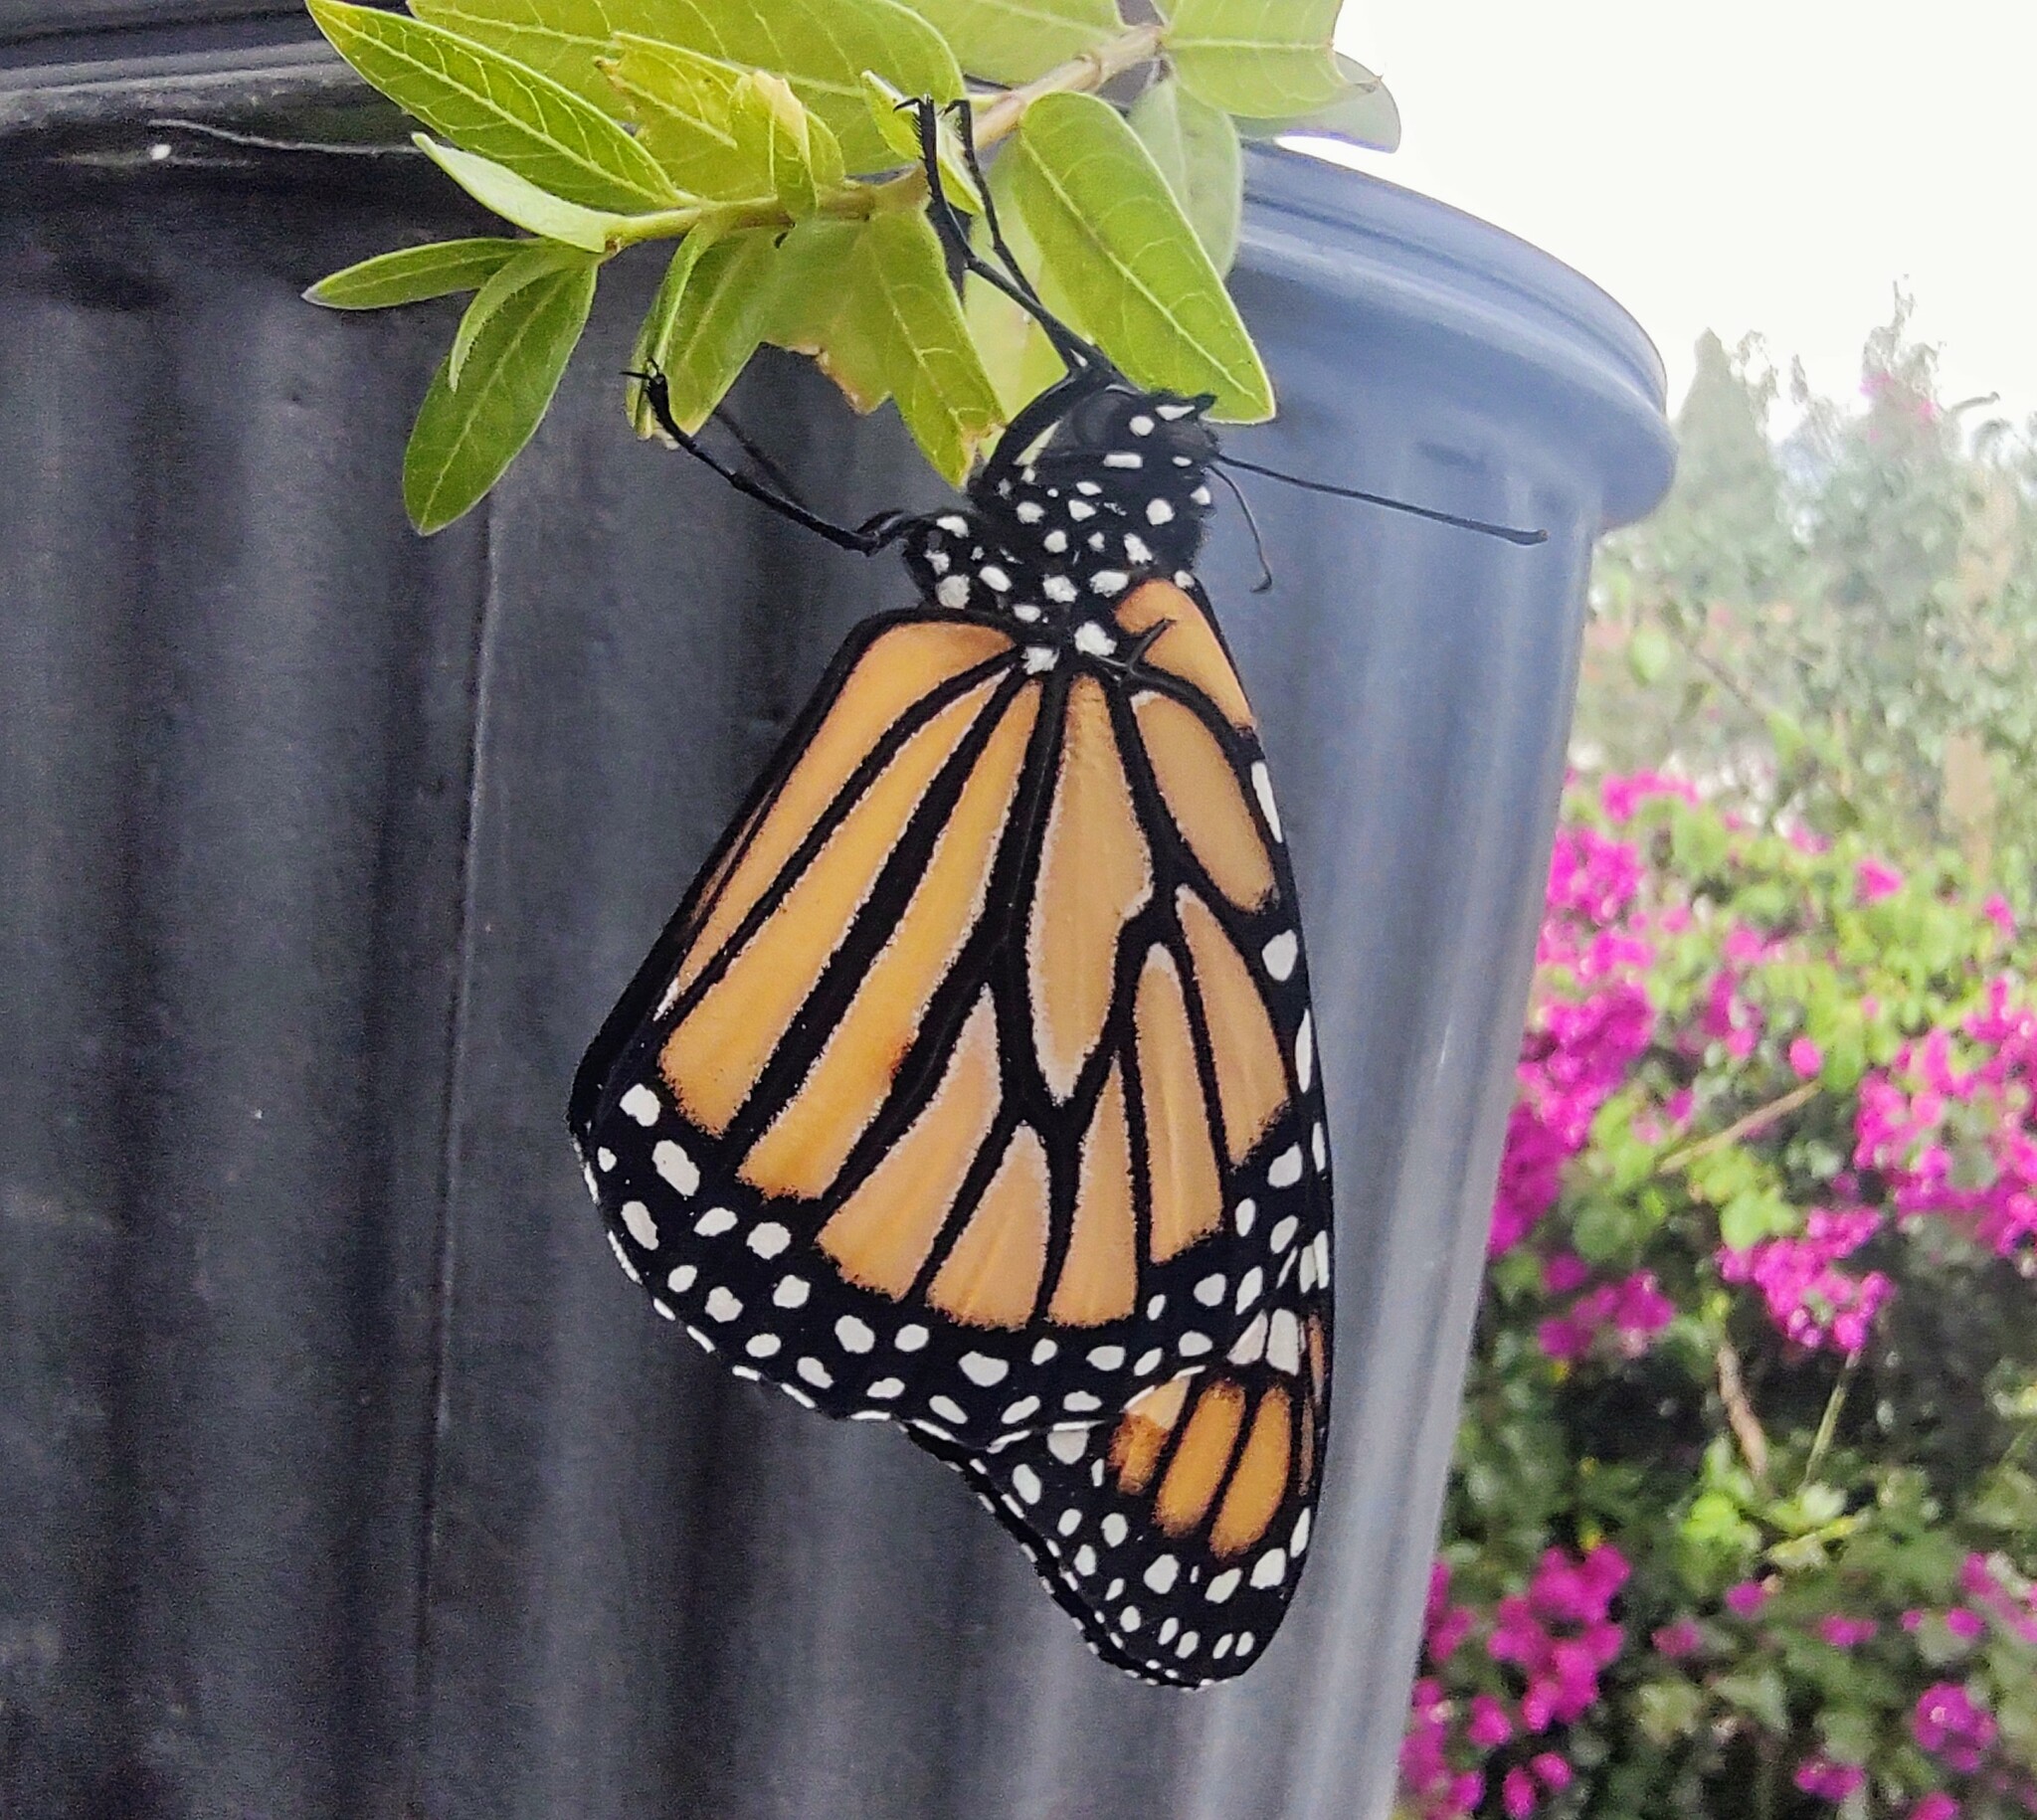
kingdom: Animalia
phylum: Arthropoda
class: Insecta
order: Lepidoptera
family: Nymphalidae
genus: Danaus
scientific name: Danaus plexippus
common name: Monarch
